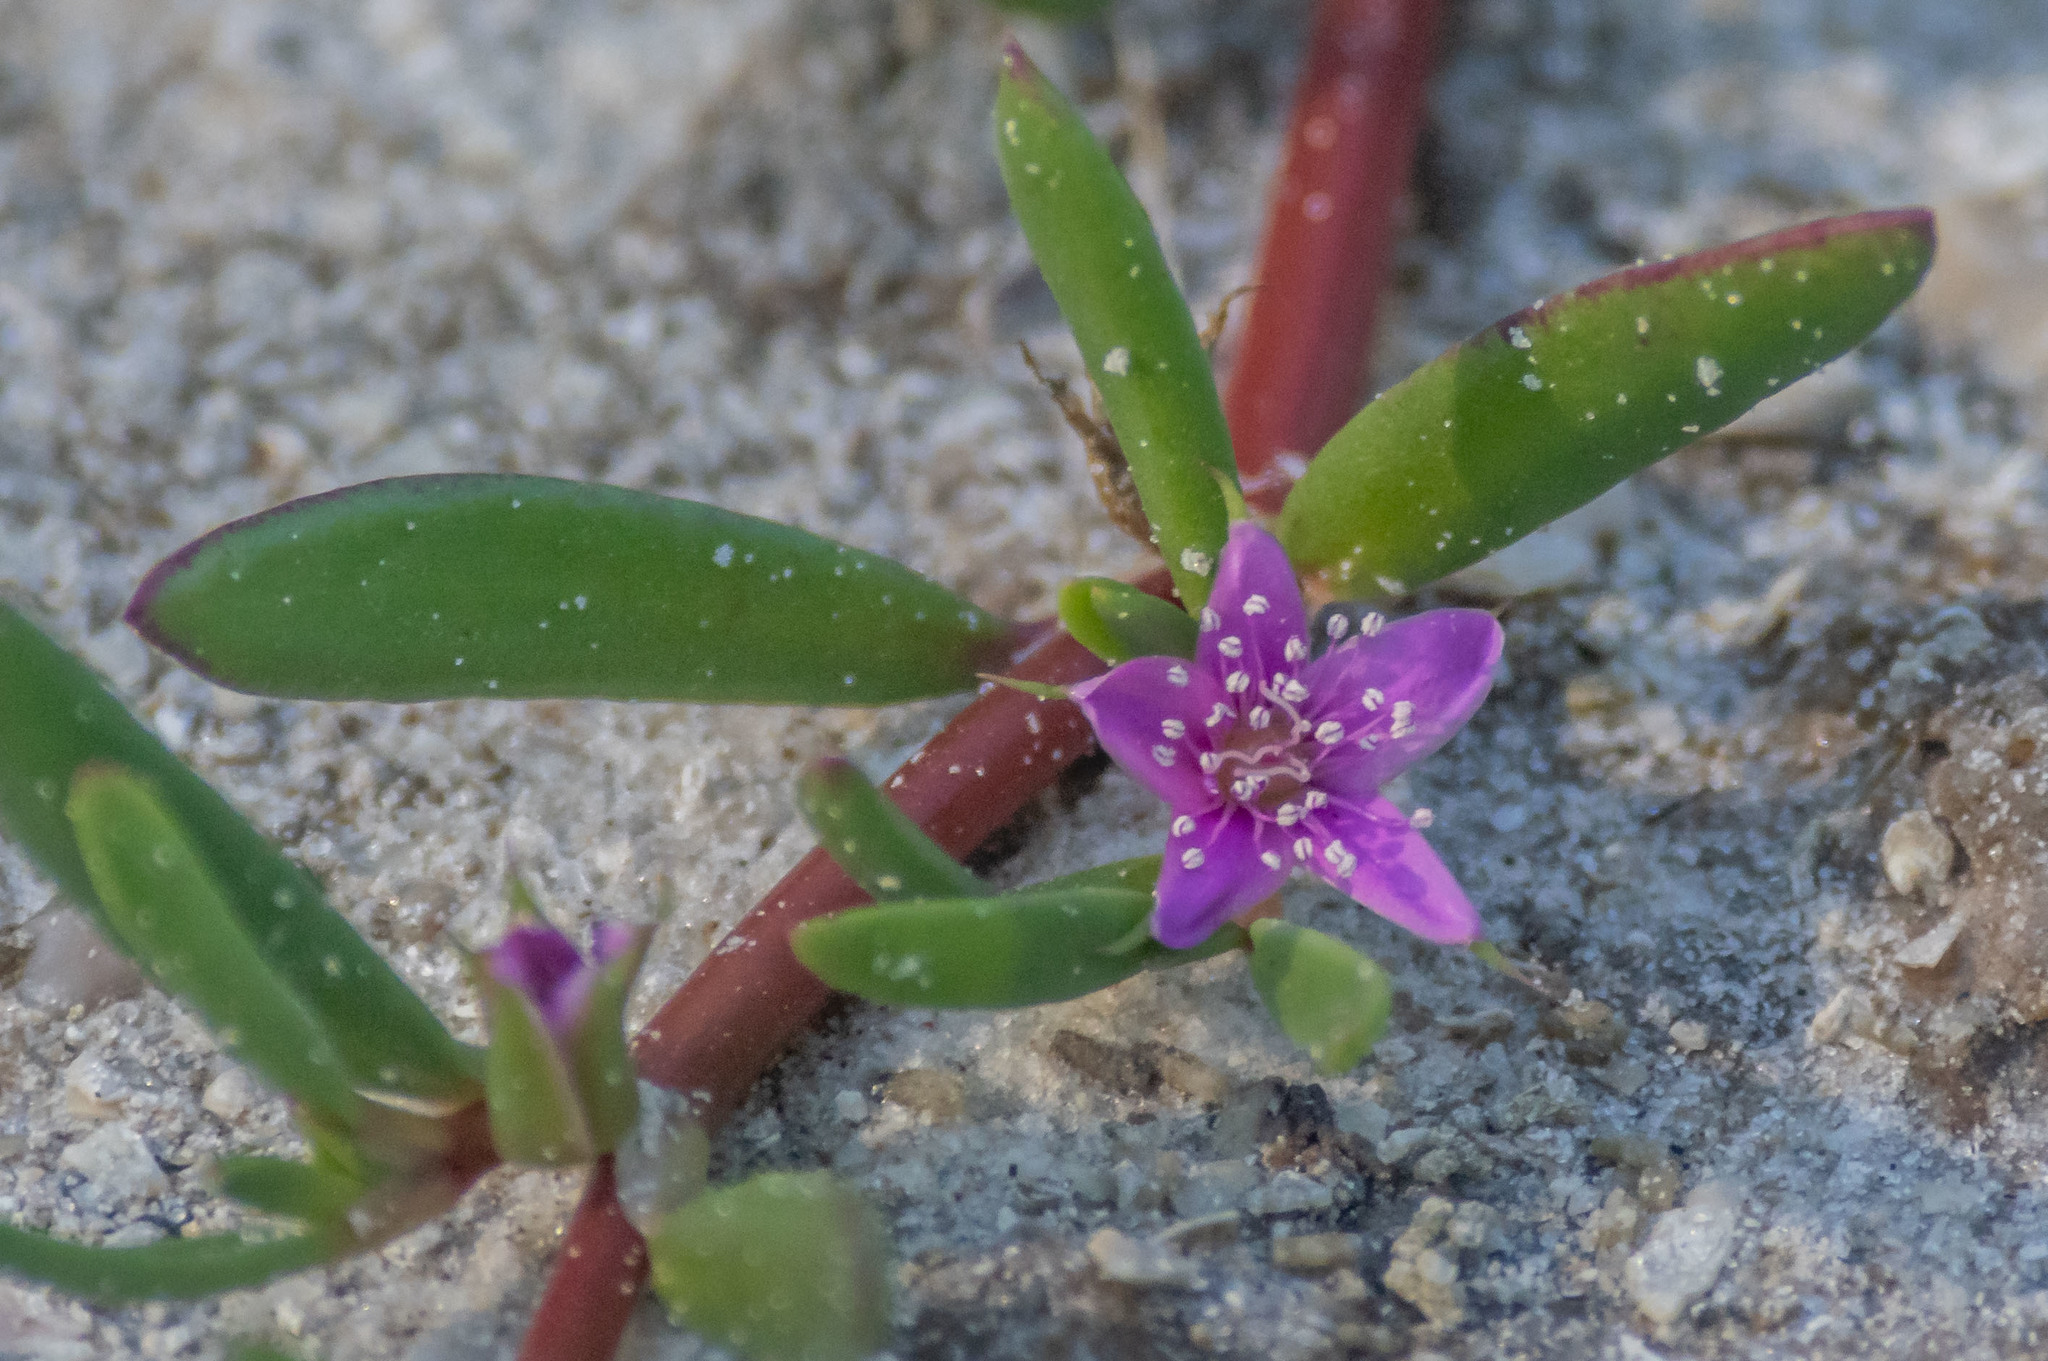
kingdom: Plantae
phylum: Tracheophyta
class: Magnoliopsida
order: Caryophyllales
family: Aizoaceae
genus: Sesuvium
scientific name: Sesuvium portulacastrum
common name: Sea-purslane
